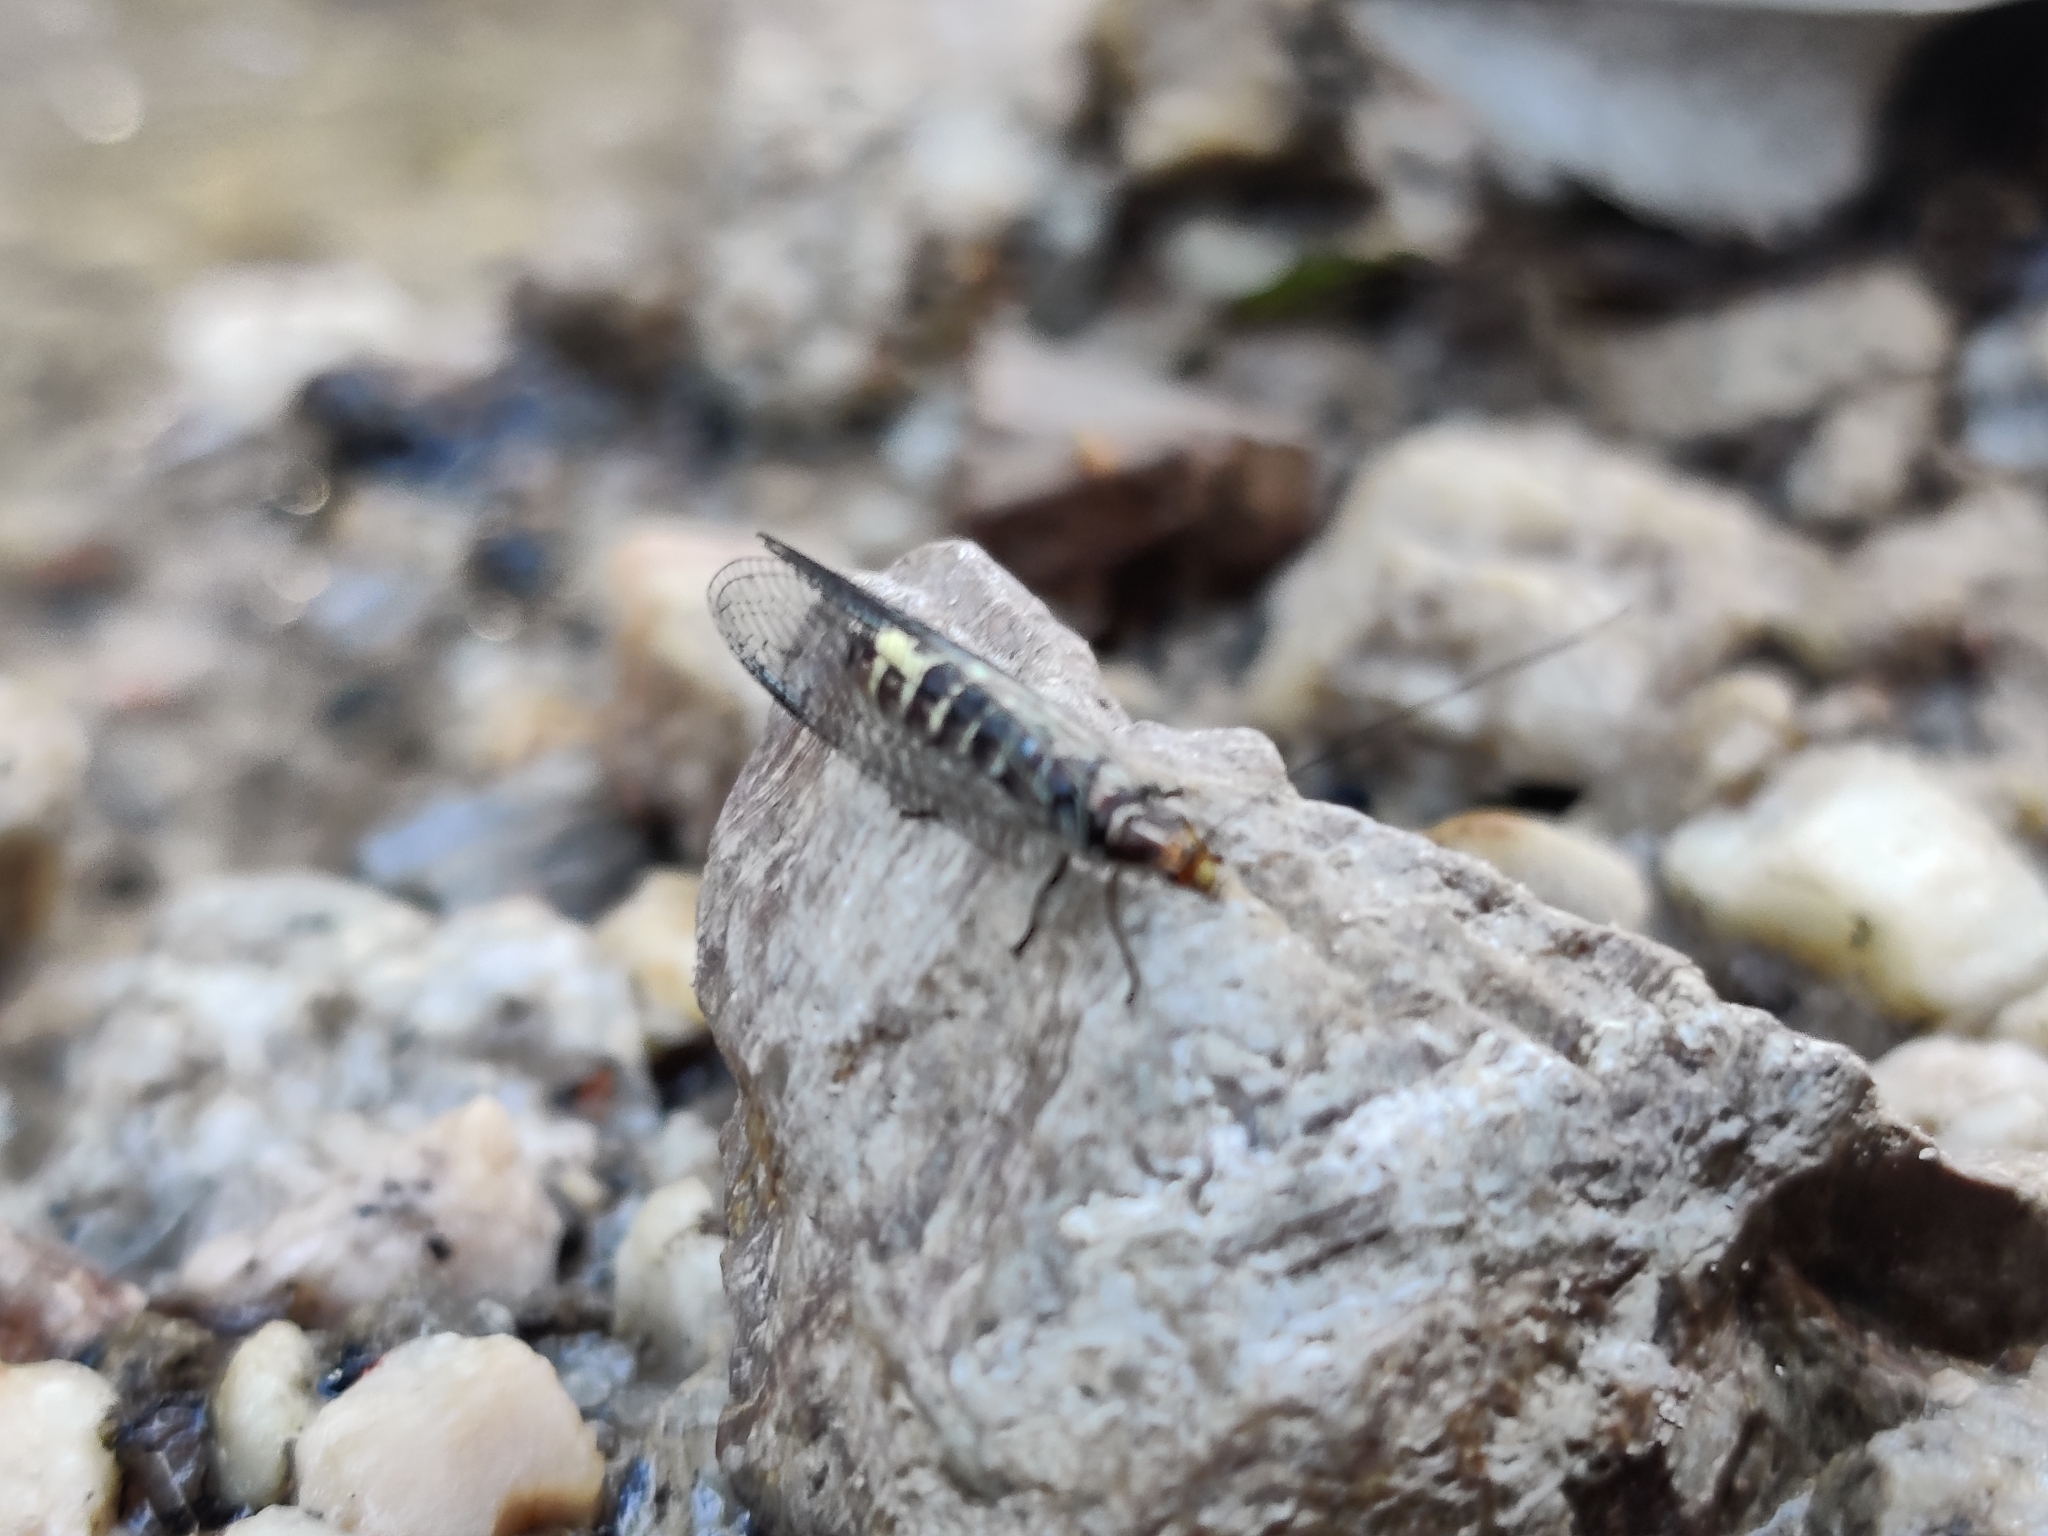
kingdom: Animalia
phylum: Arthropoda
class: Insecta
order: Neuroptera
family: Chrysopidae
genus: Nothochrysa
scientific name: Nothochrysa californica
